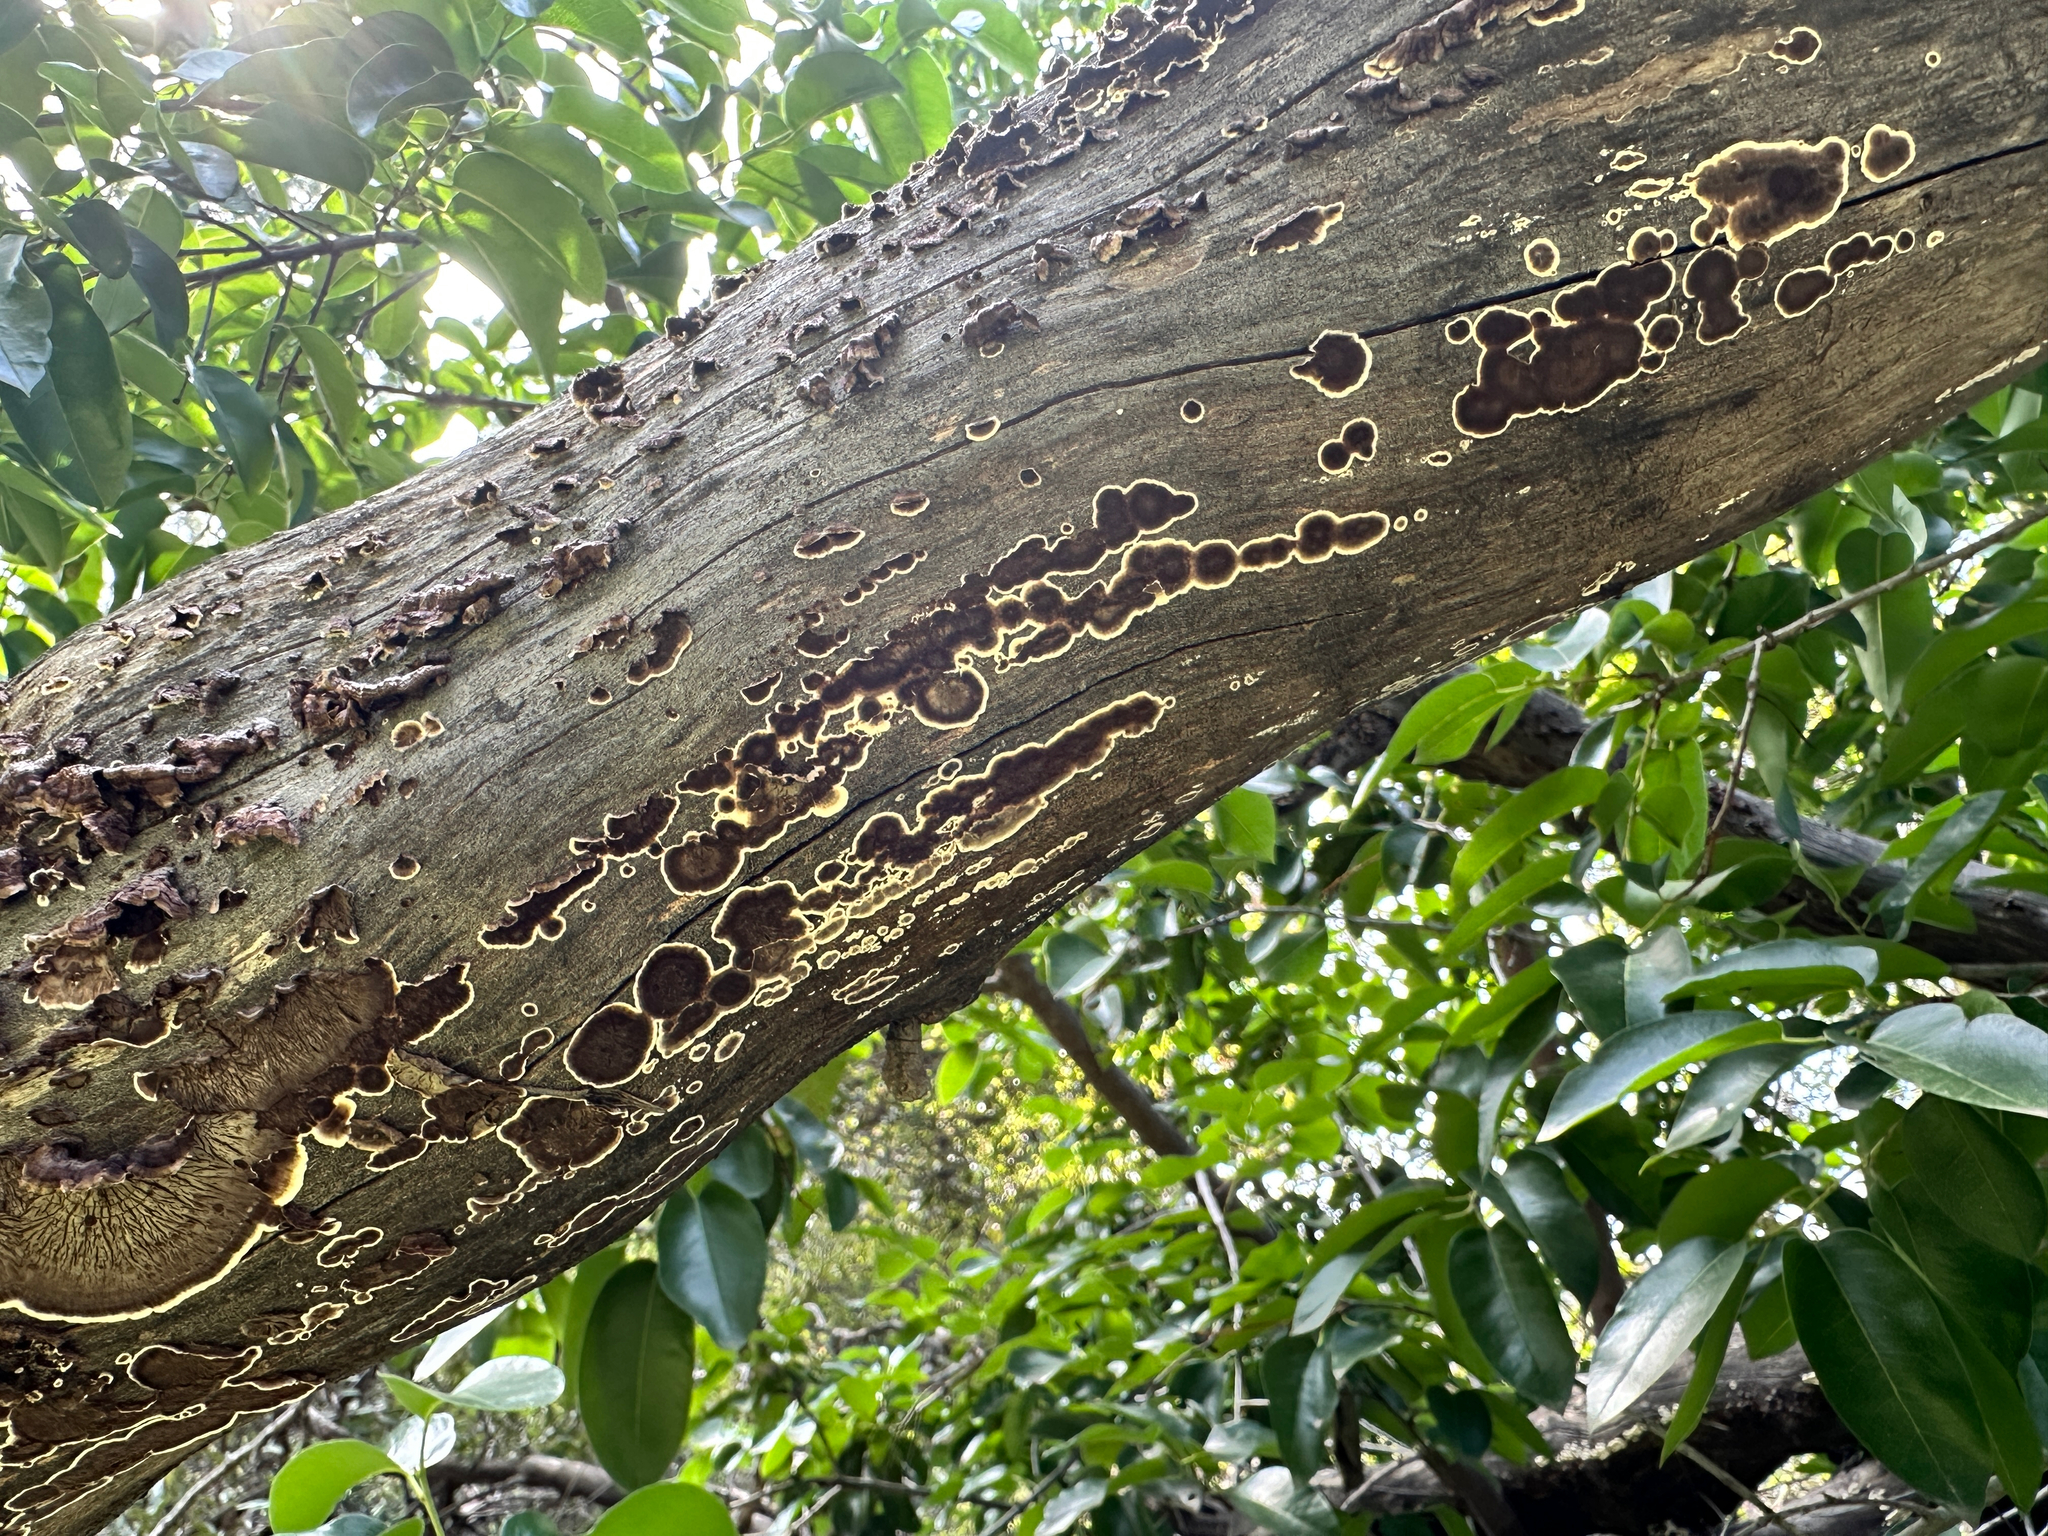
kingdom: Fungi
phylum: Basidiomycota
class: Agaricomycetes
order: Russulales
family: Peniophoraceae
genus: Peniophora
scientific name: Peniophora albobadia
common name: Giraffe spots
